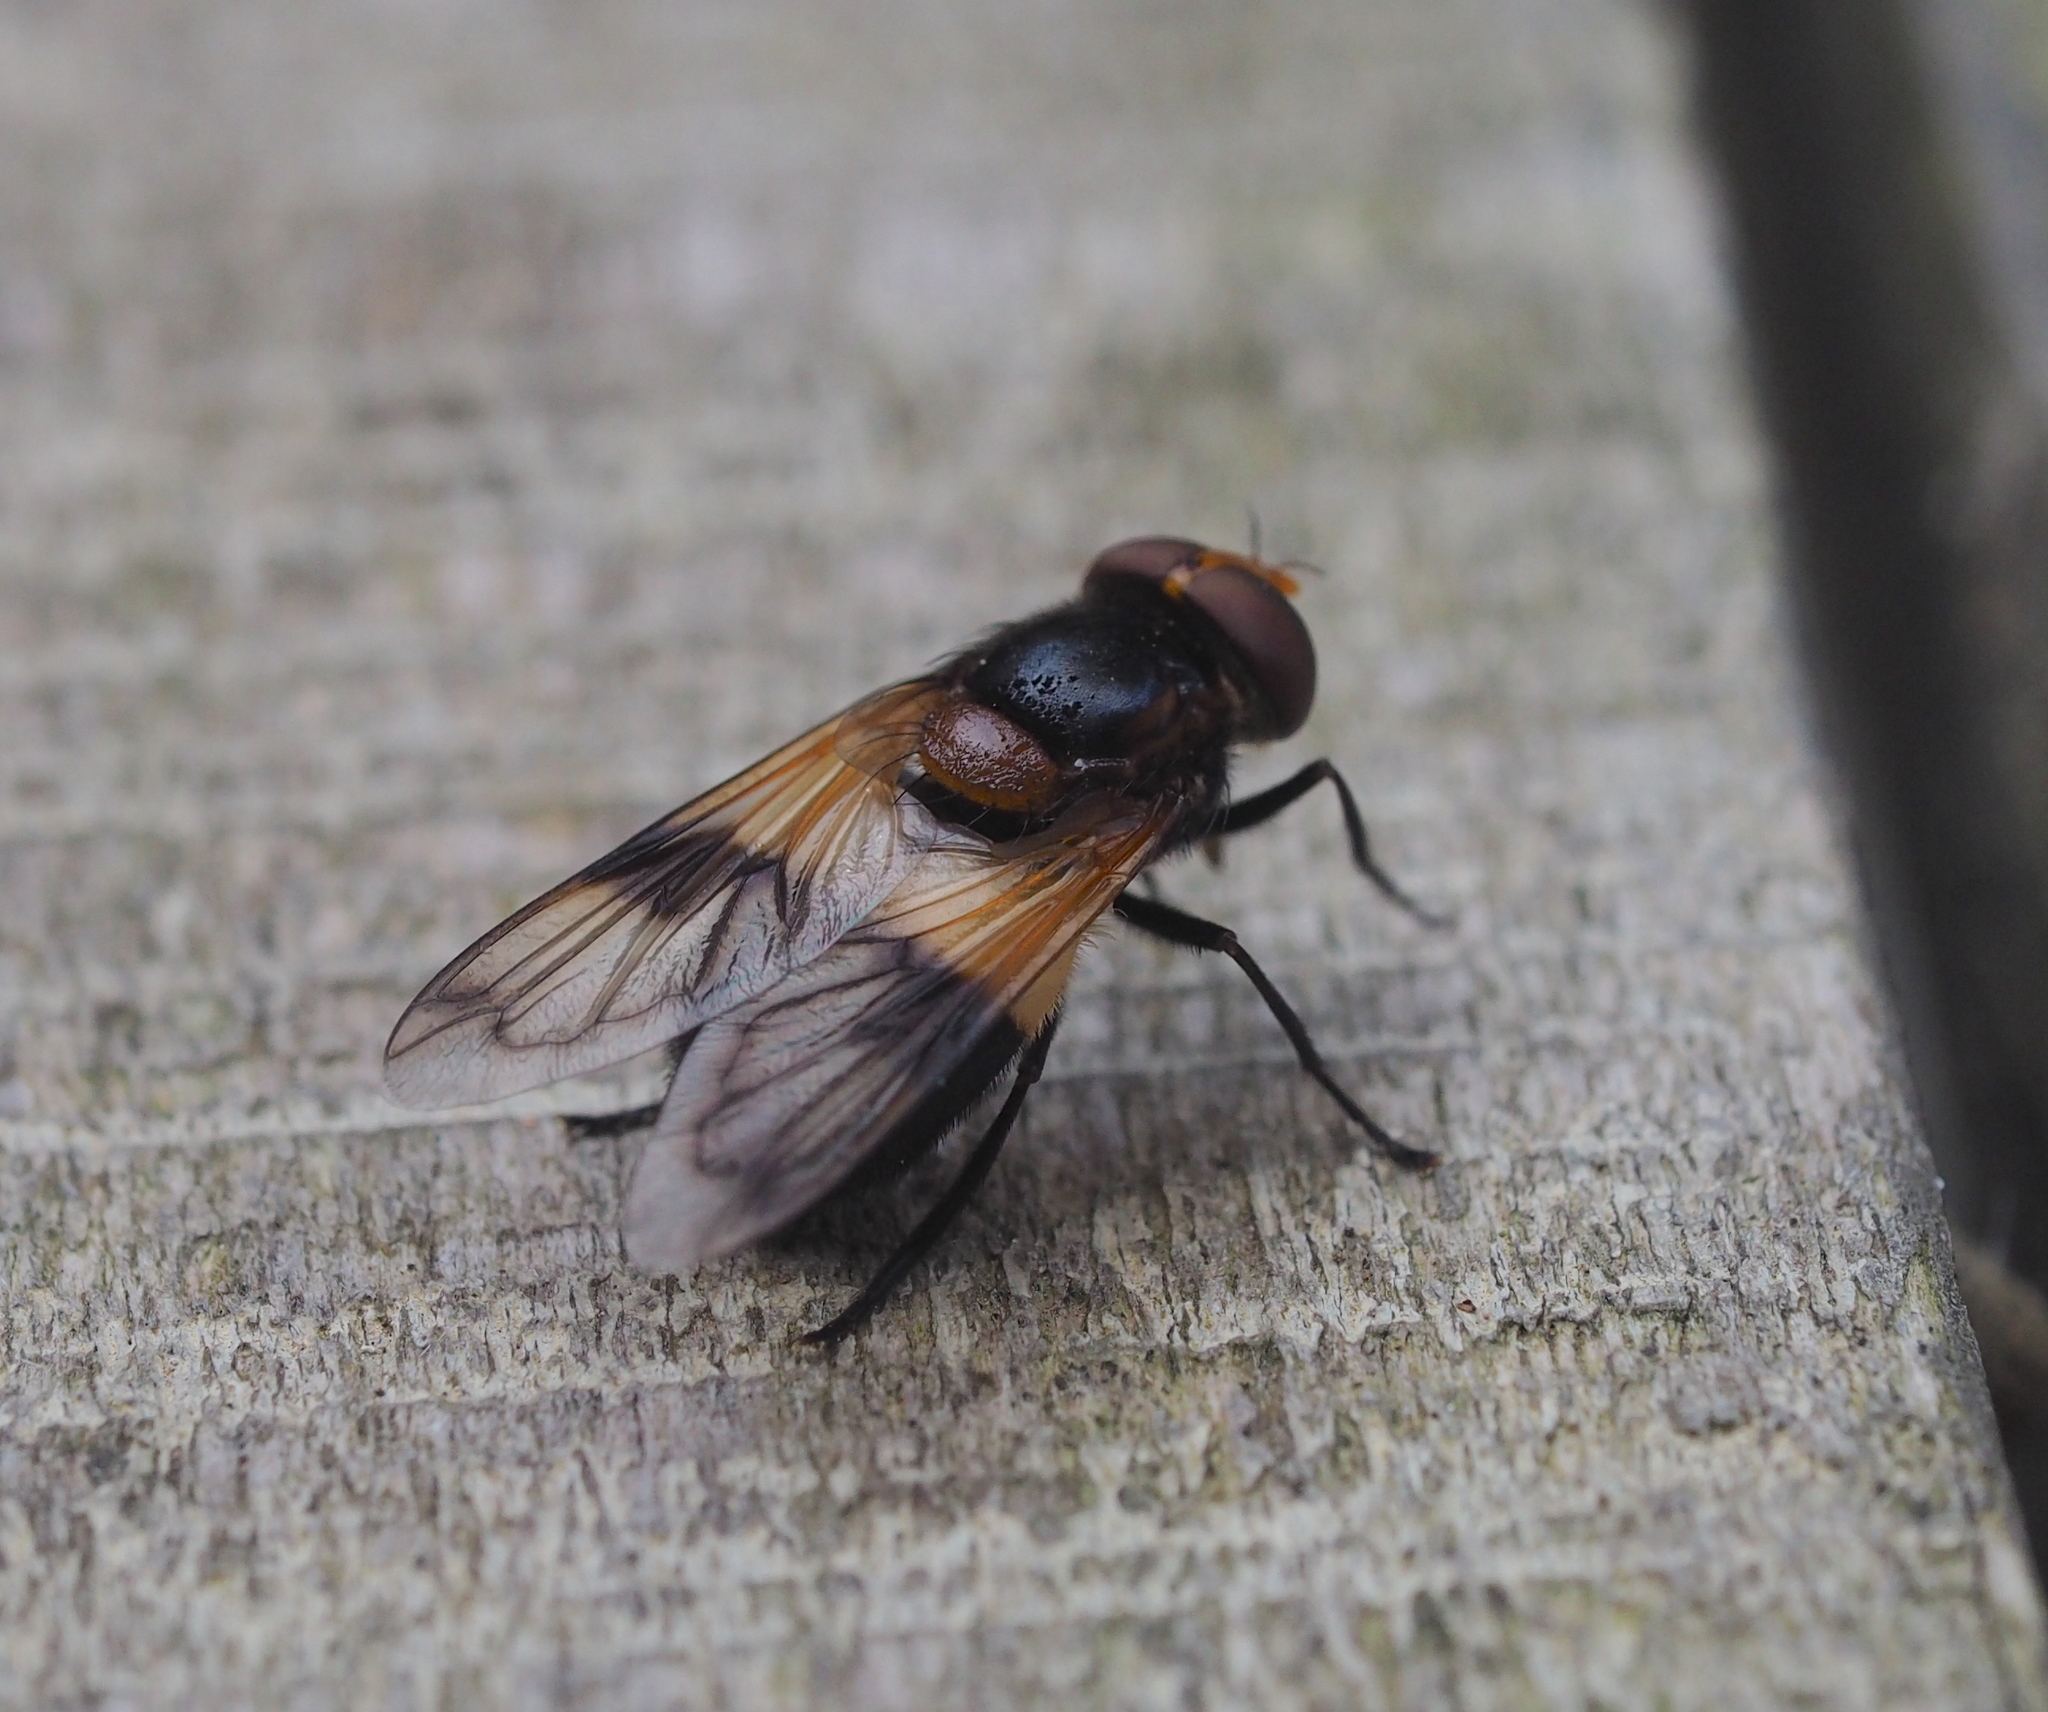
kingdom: Animalia
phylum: Arthropoda
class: Insecta
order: Diptera
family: Syrphidae
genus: Volucella
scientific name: Volucella pellucens
